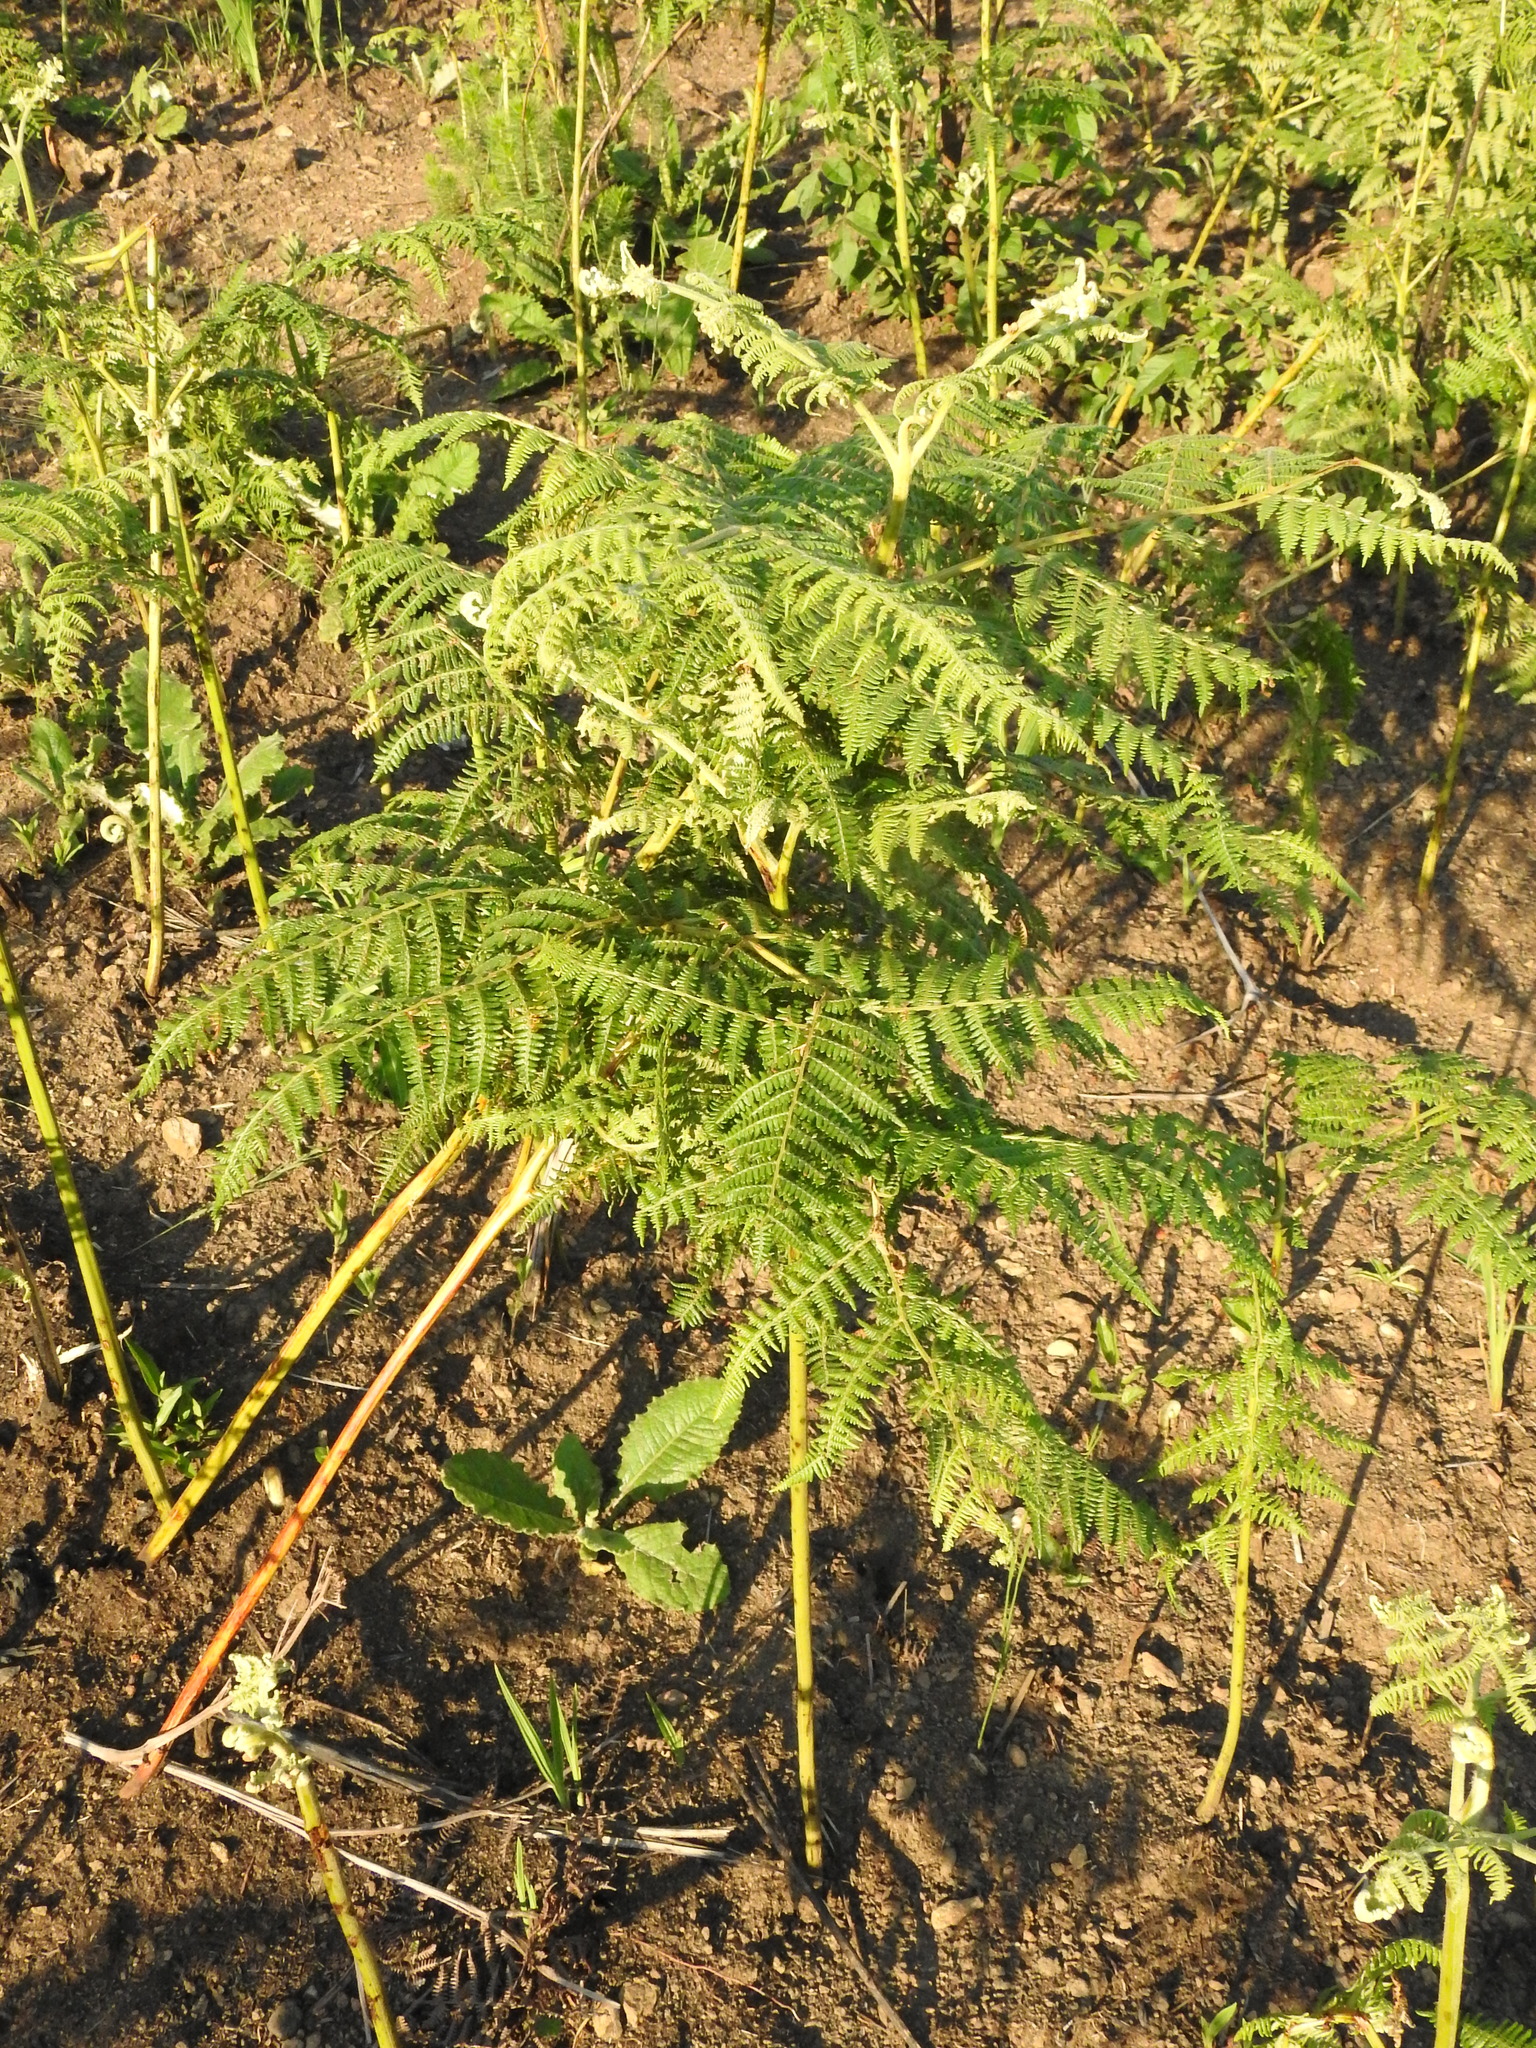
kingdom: Plantae
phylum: Tracheophyta
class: Polypodiopsida
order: Polypodiales
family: Dennstaedtiaceae
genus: Pteridium
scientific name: Pteridium aquilinum
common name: Bracken
